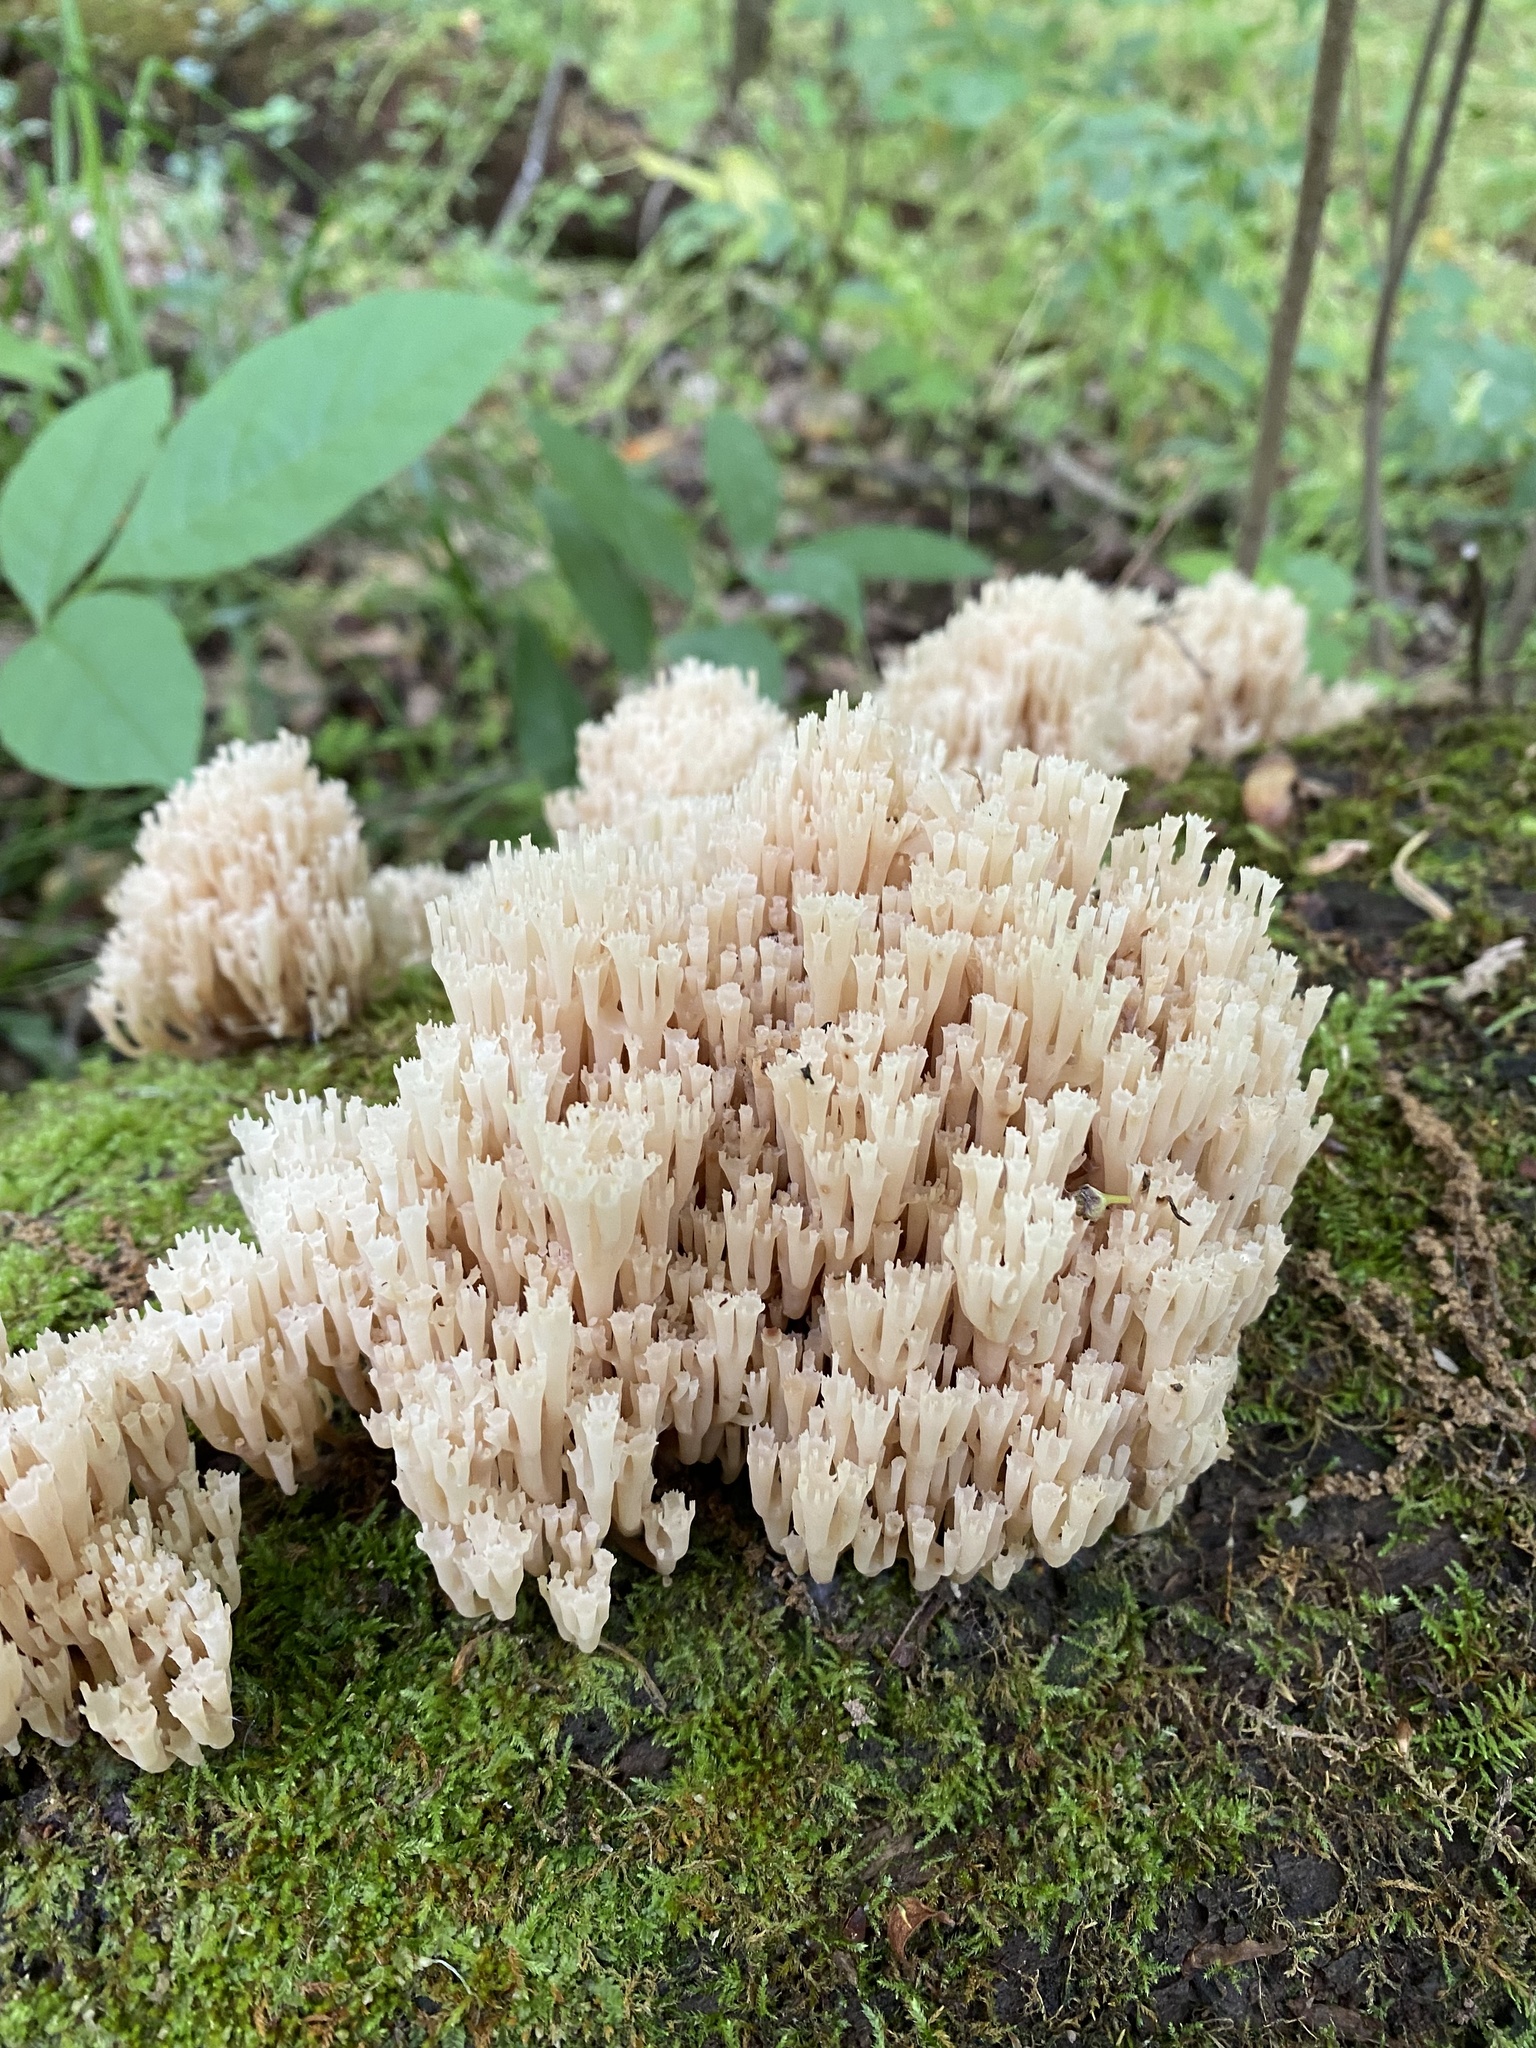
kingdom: Fungi
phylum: Basidiomycota
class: Agaricomycetes
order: Russulales
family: Auriscalpiaceae
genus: Artomyces
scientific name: Artomyces pyxidatus
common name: Crown-tipped coral fungus
